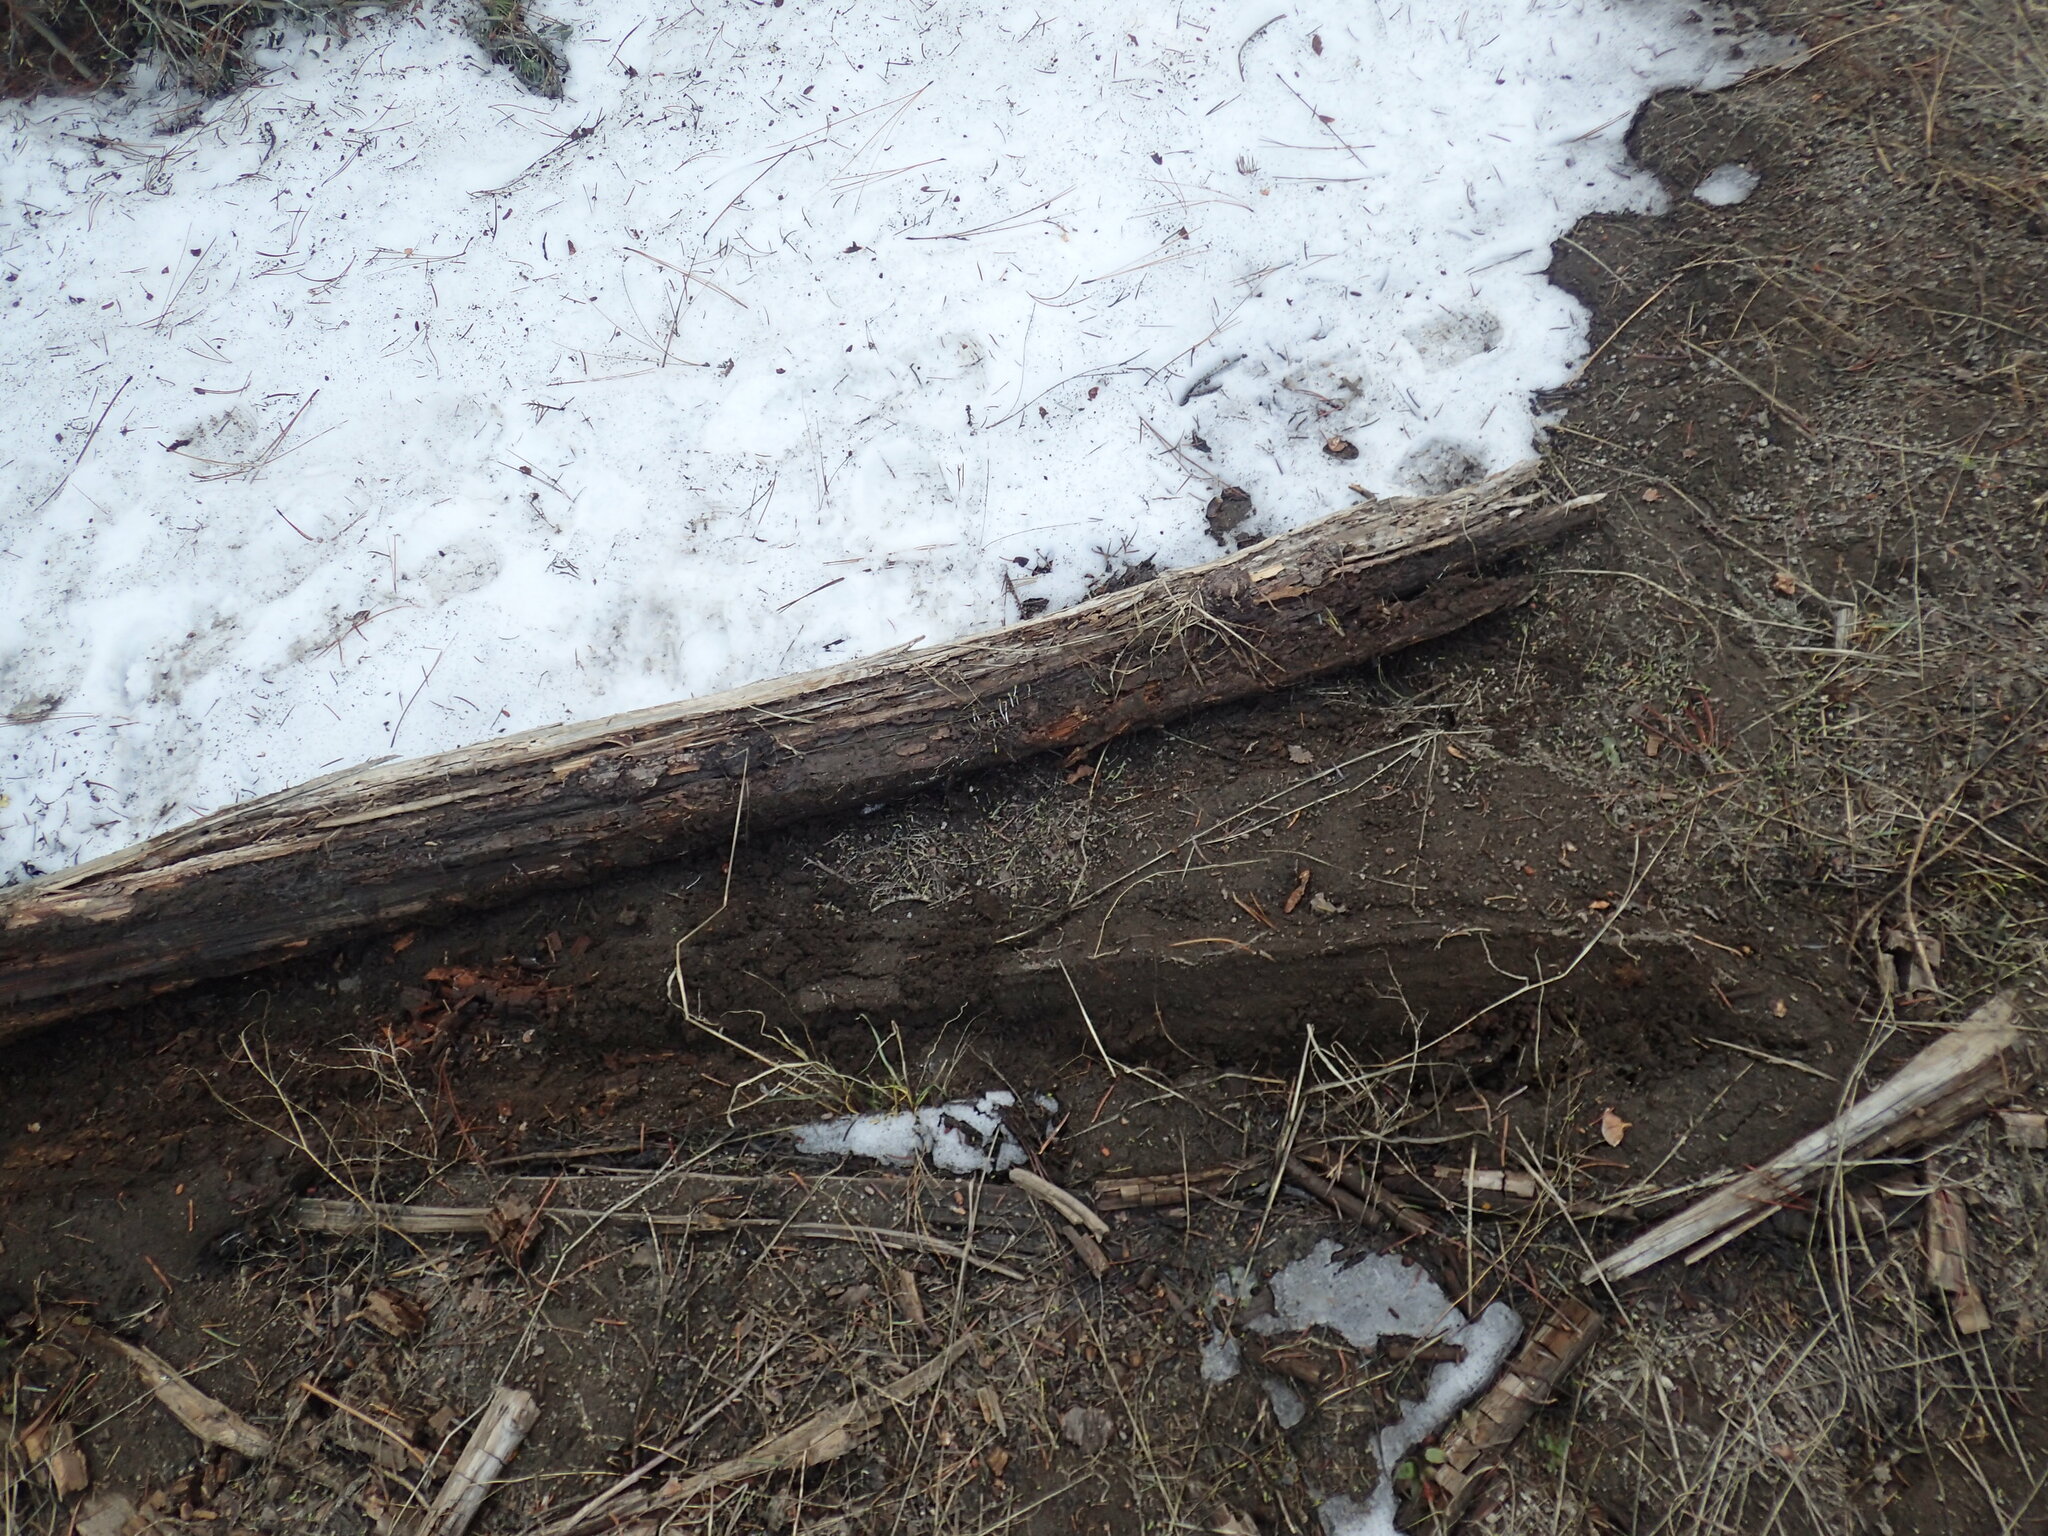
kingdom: Fungi
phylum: Basidiomycota
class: Dacrymycetes
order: Dacrymycetales
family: Dacrymycetaceae
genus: Guepiniopsis
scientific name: Guepiniopsis alpina
